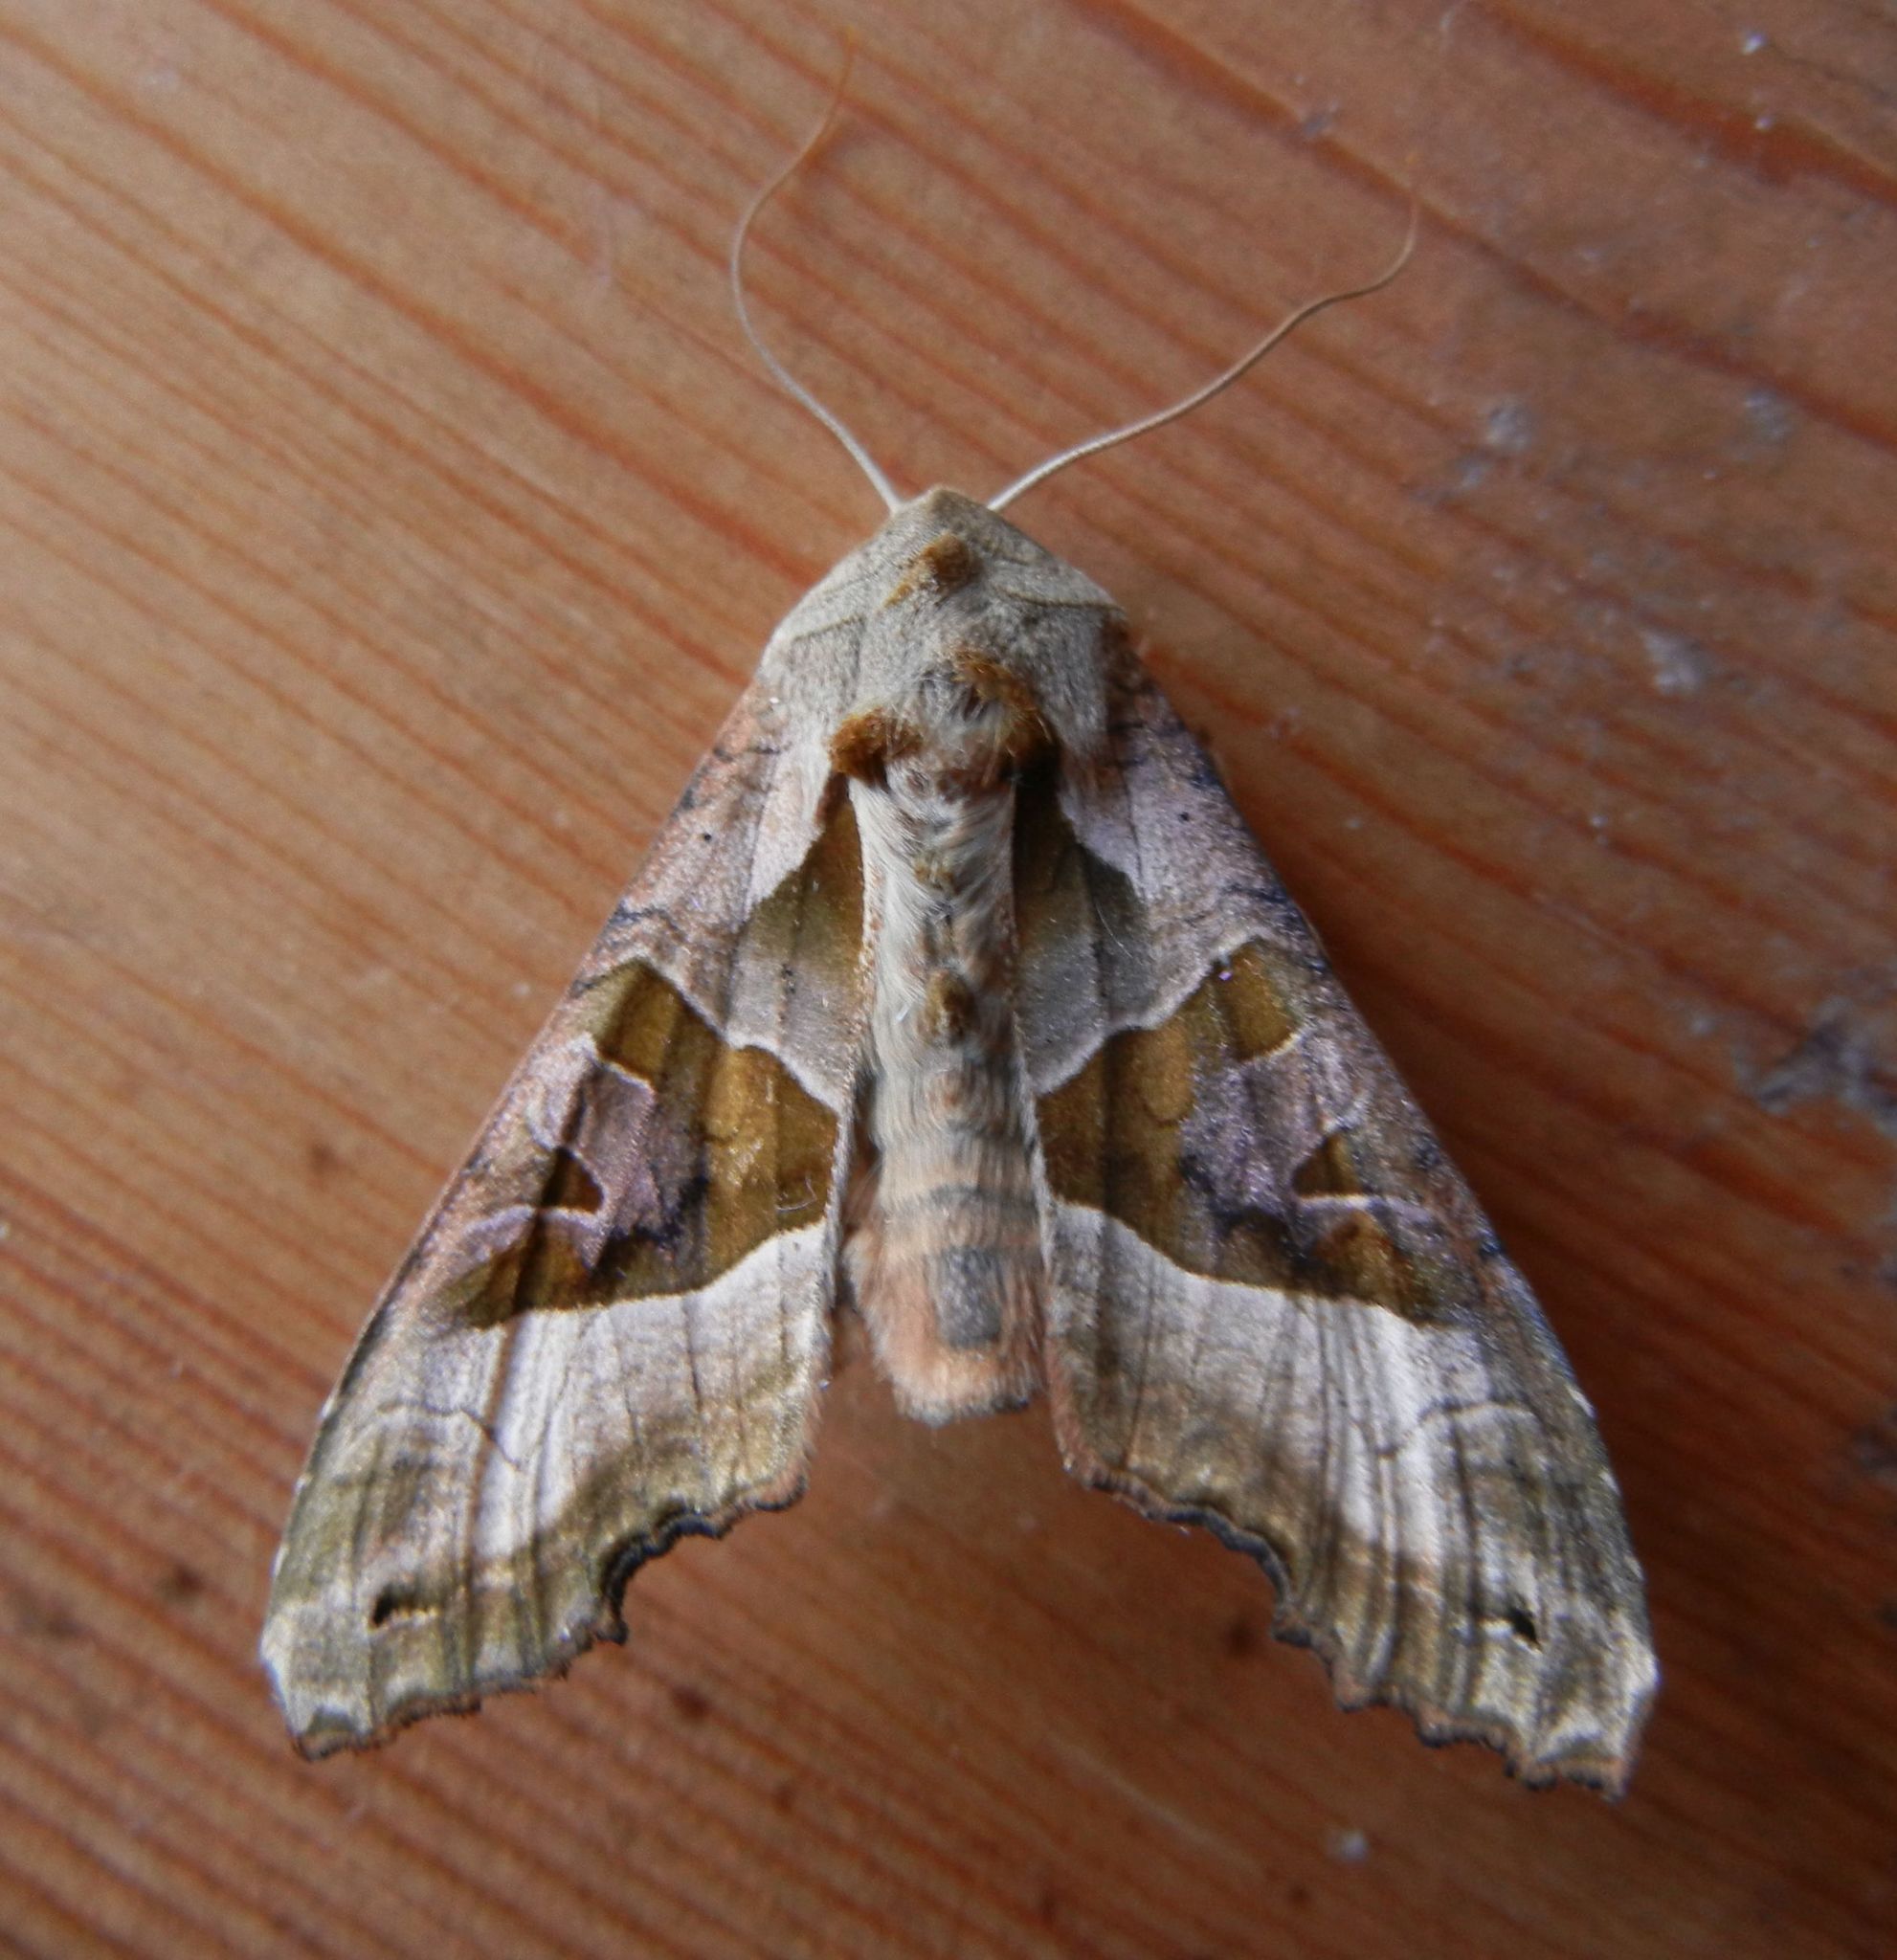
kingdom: Animalia
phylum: Arthropoda
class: Insecta
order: Lepidoptera
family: Noctuidae
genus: Phlogophora
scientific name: Phlogophora meticulosa
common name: Angle shades
